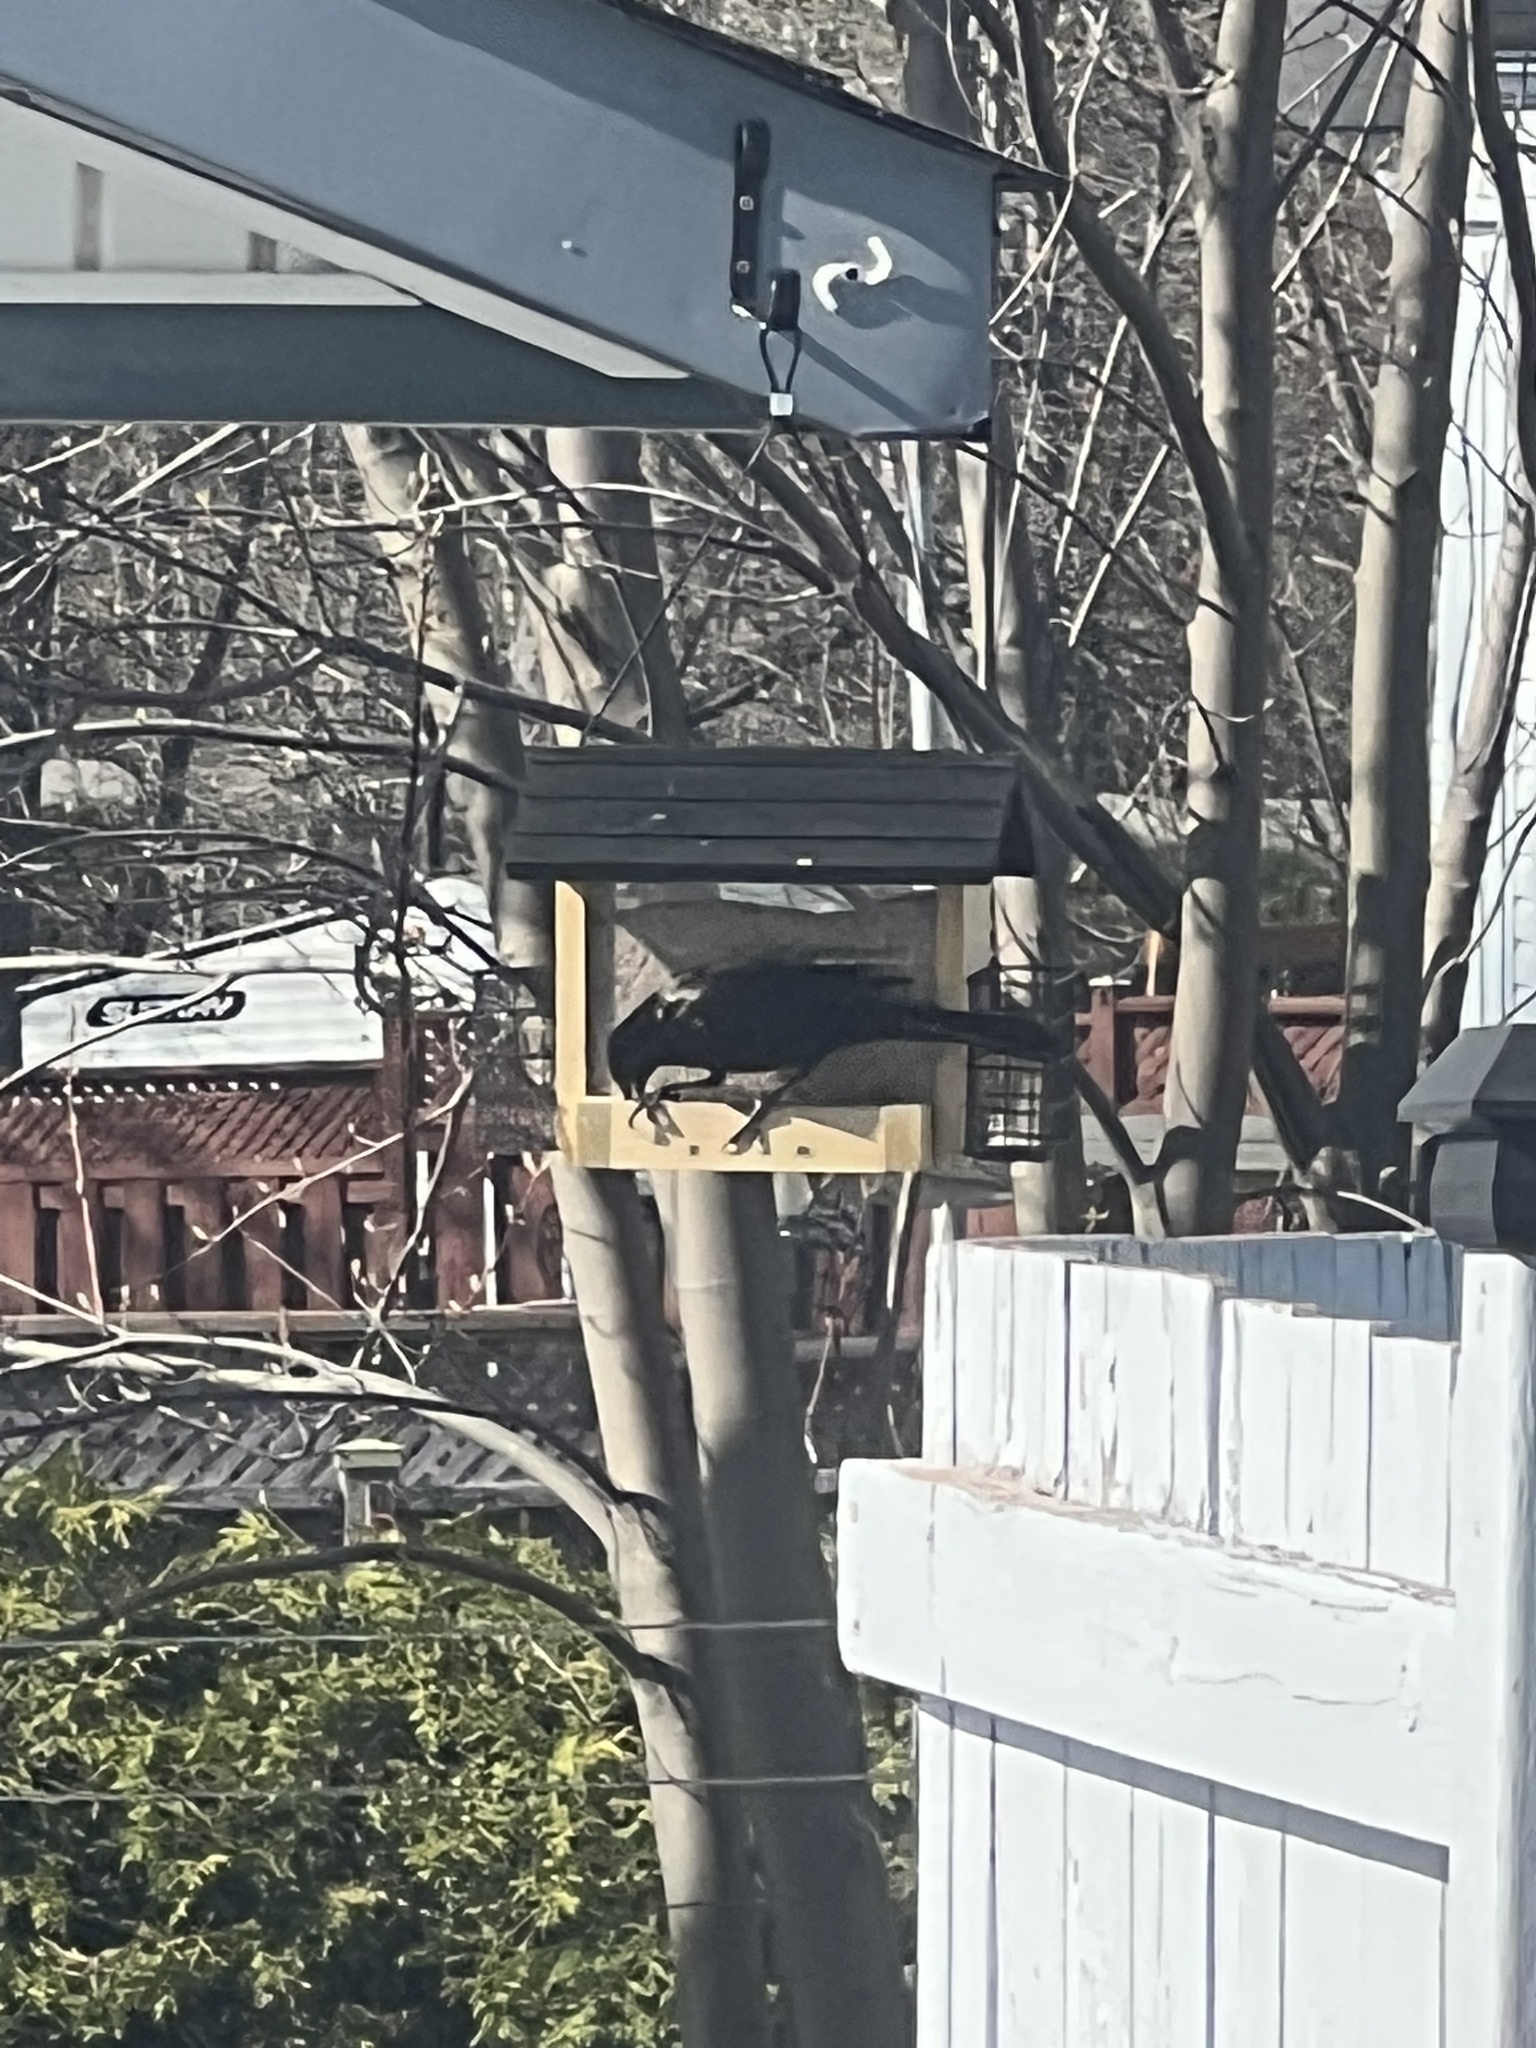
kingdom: Animalia
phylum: Chordata
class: Aves
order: Passeriformes
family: Icteridae
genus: Quiscalus
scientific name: Quiscalus quiscula
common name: Common grackle
